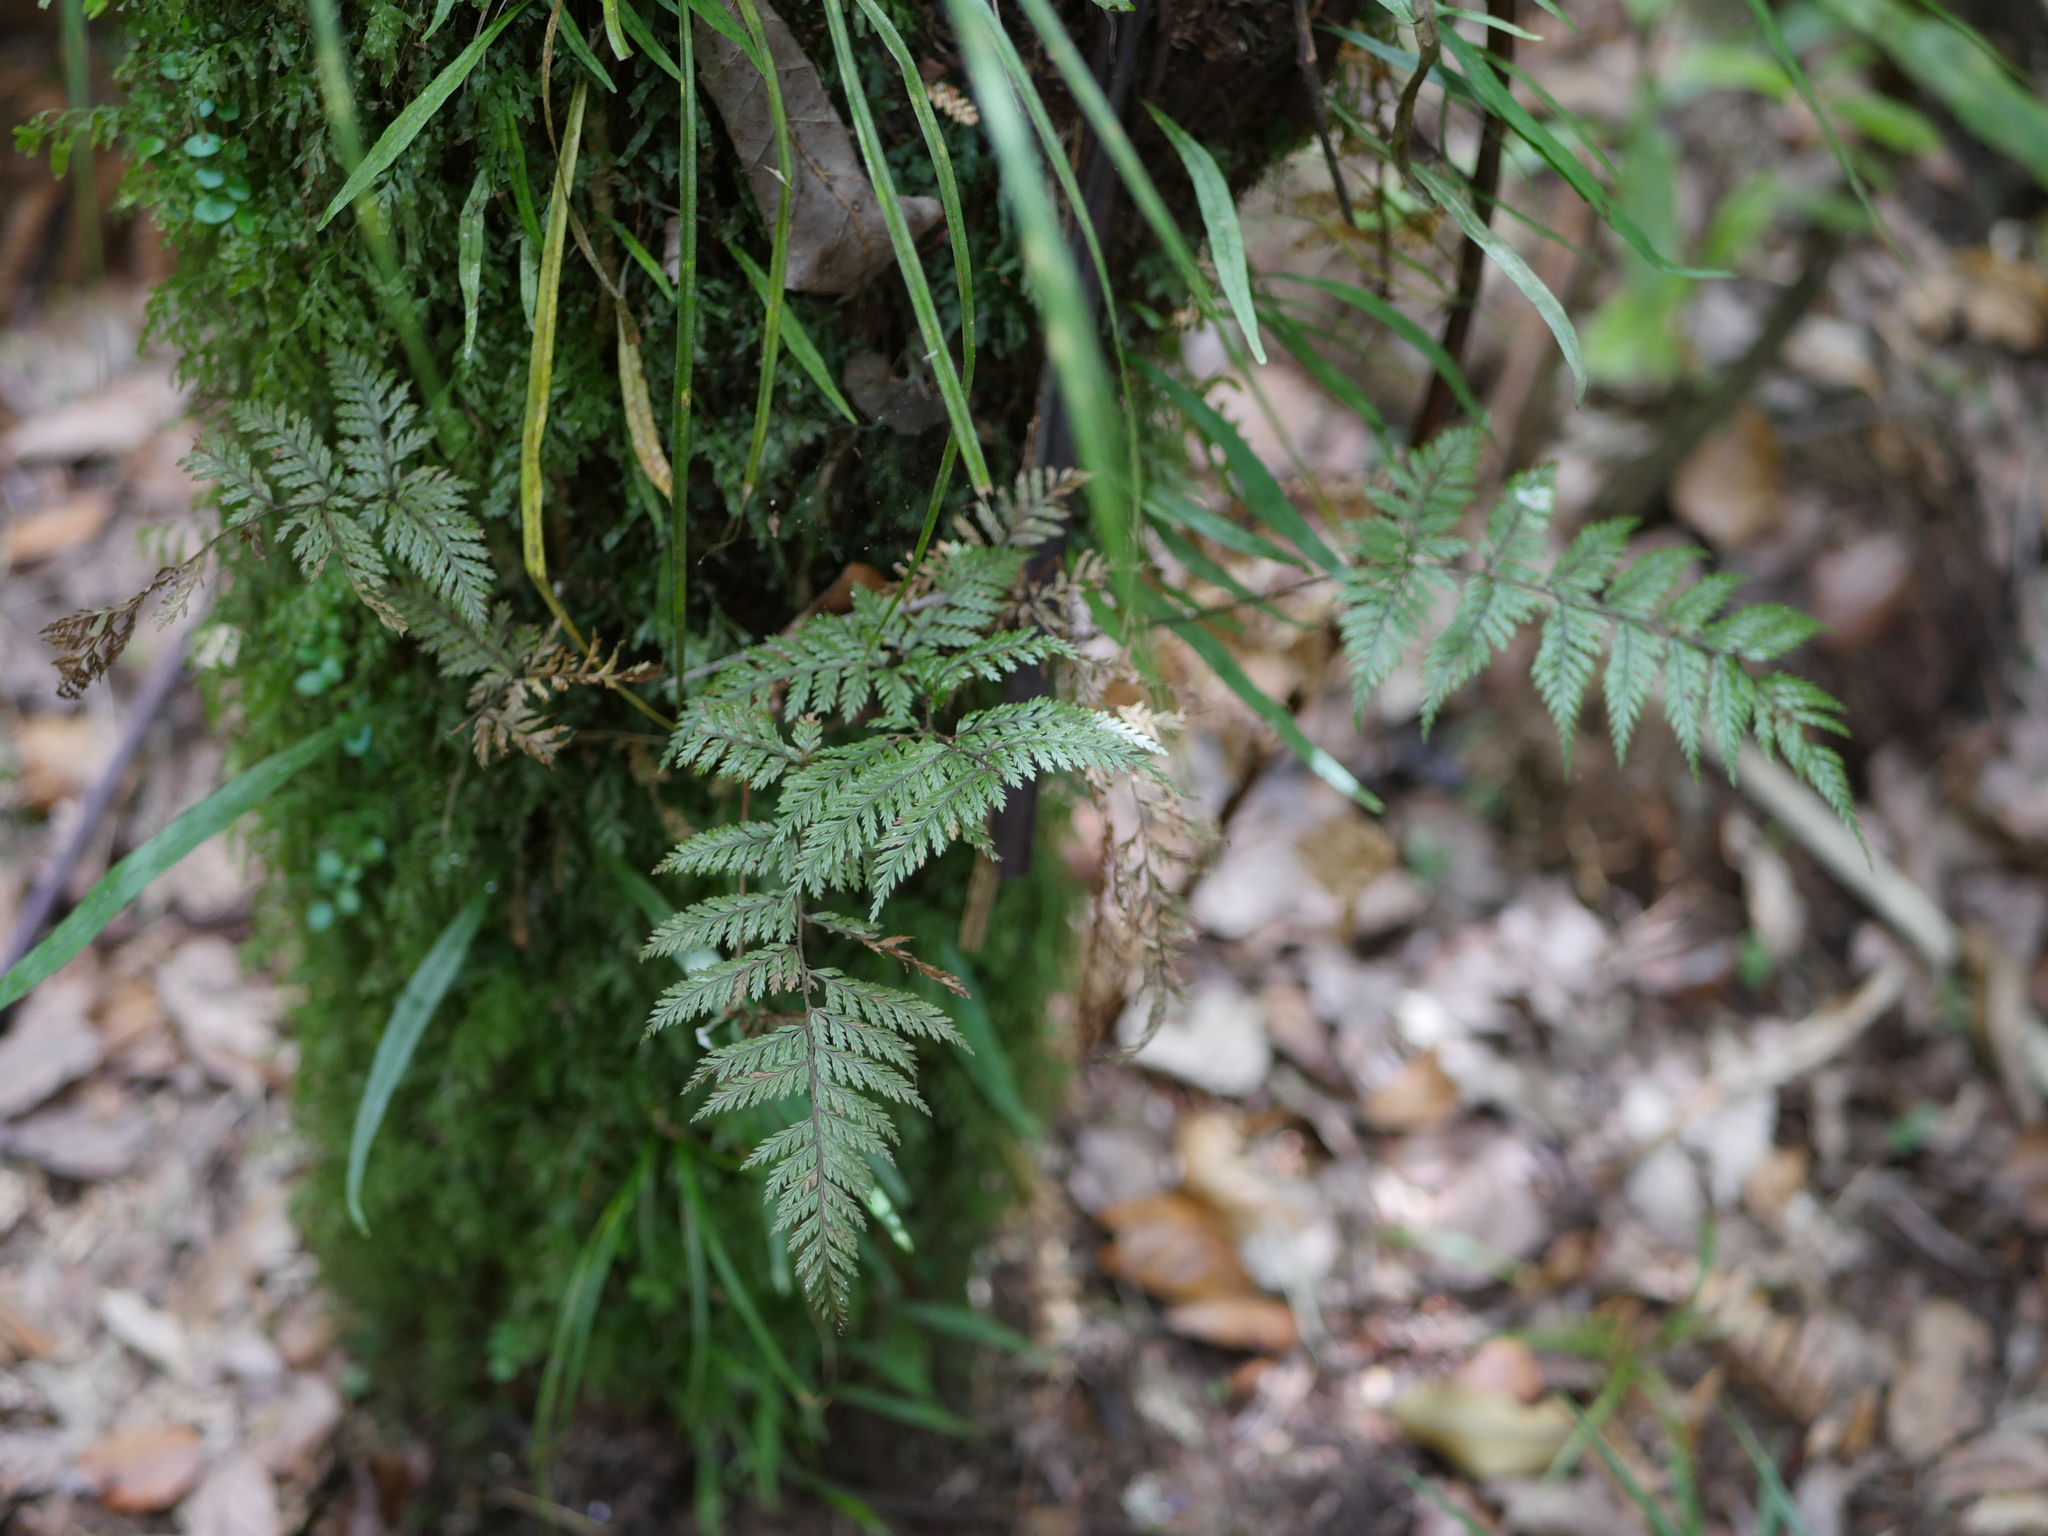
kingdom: Plantae
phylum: Tracheophyta
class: Polypodiopsida
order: Polypodiales
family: Dryopteridaceae
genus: Lastreopsis
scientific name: Lastreopsis hispida
